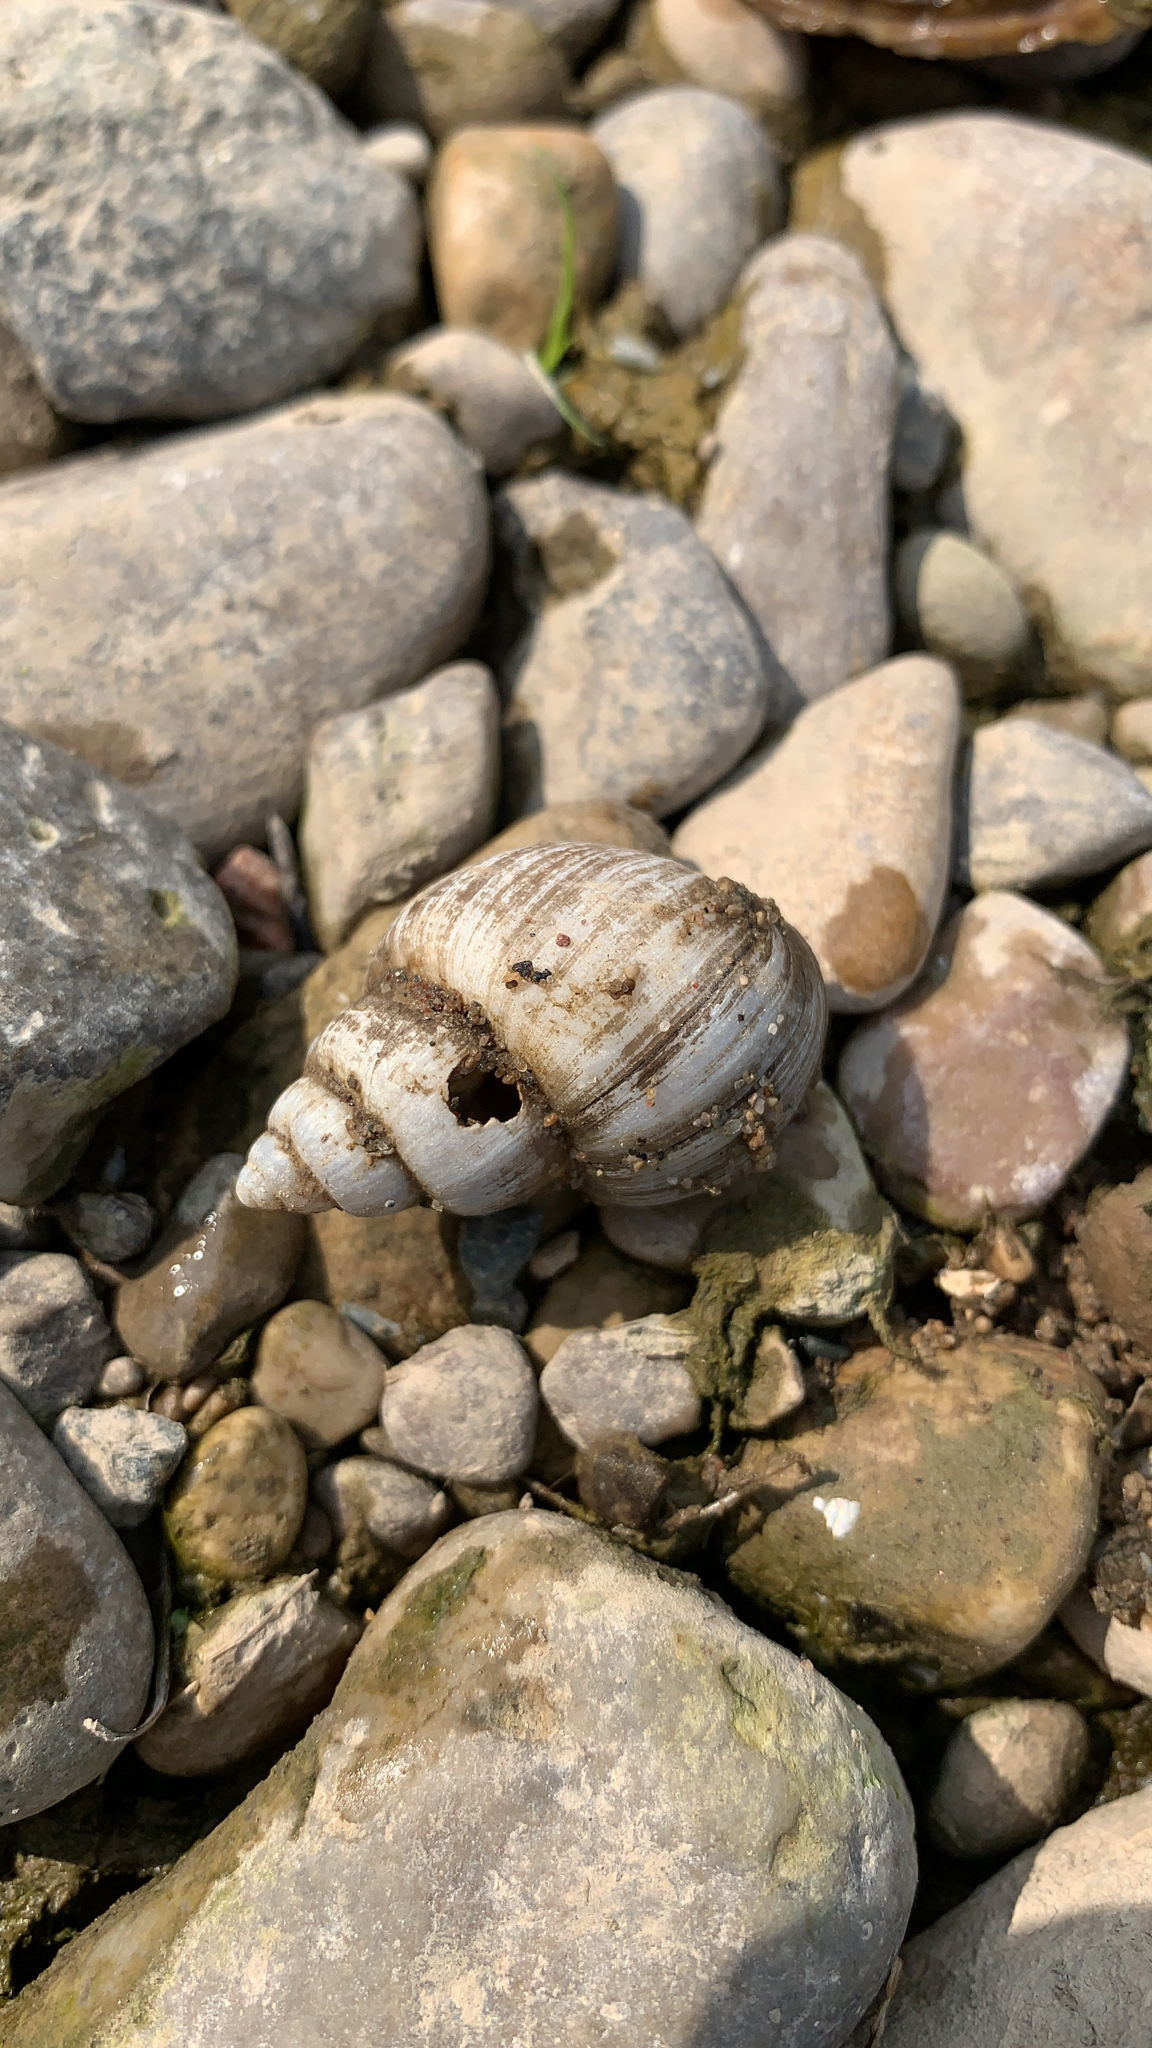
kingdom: Animalia
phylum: Mollusca
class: Gastropoda
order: Architaenioglossa
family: Viviparidae
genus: Cipangopaludina
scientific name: Cipangopaludina chinensis
